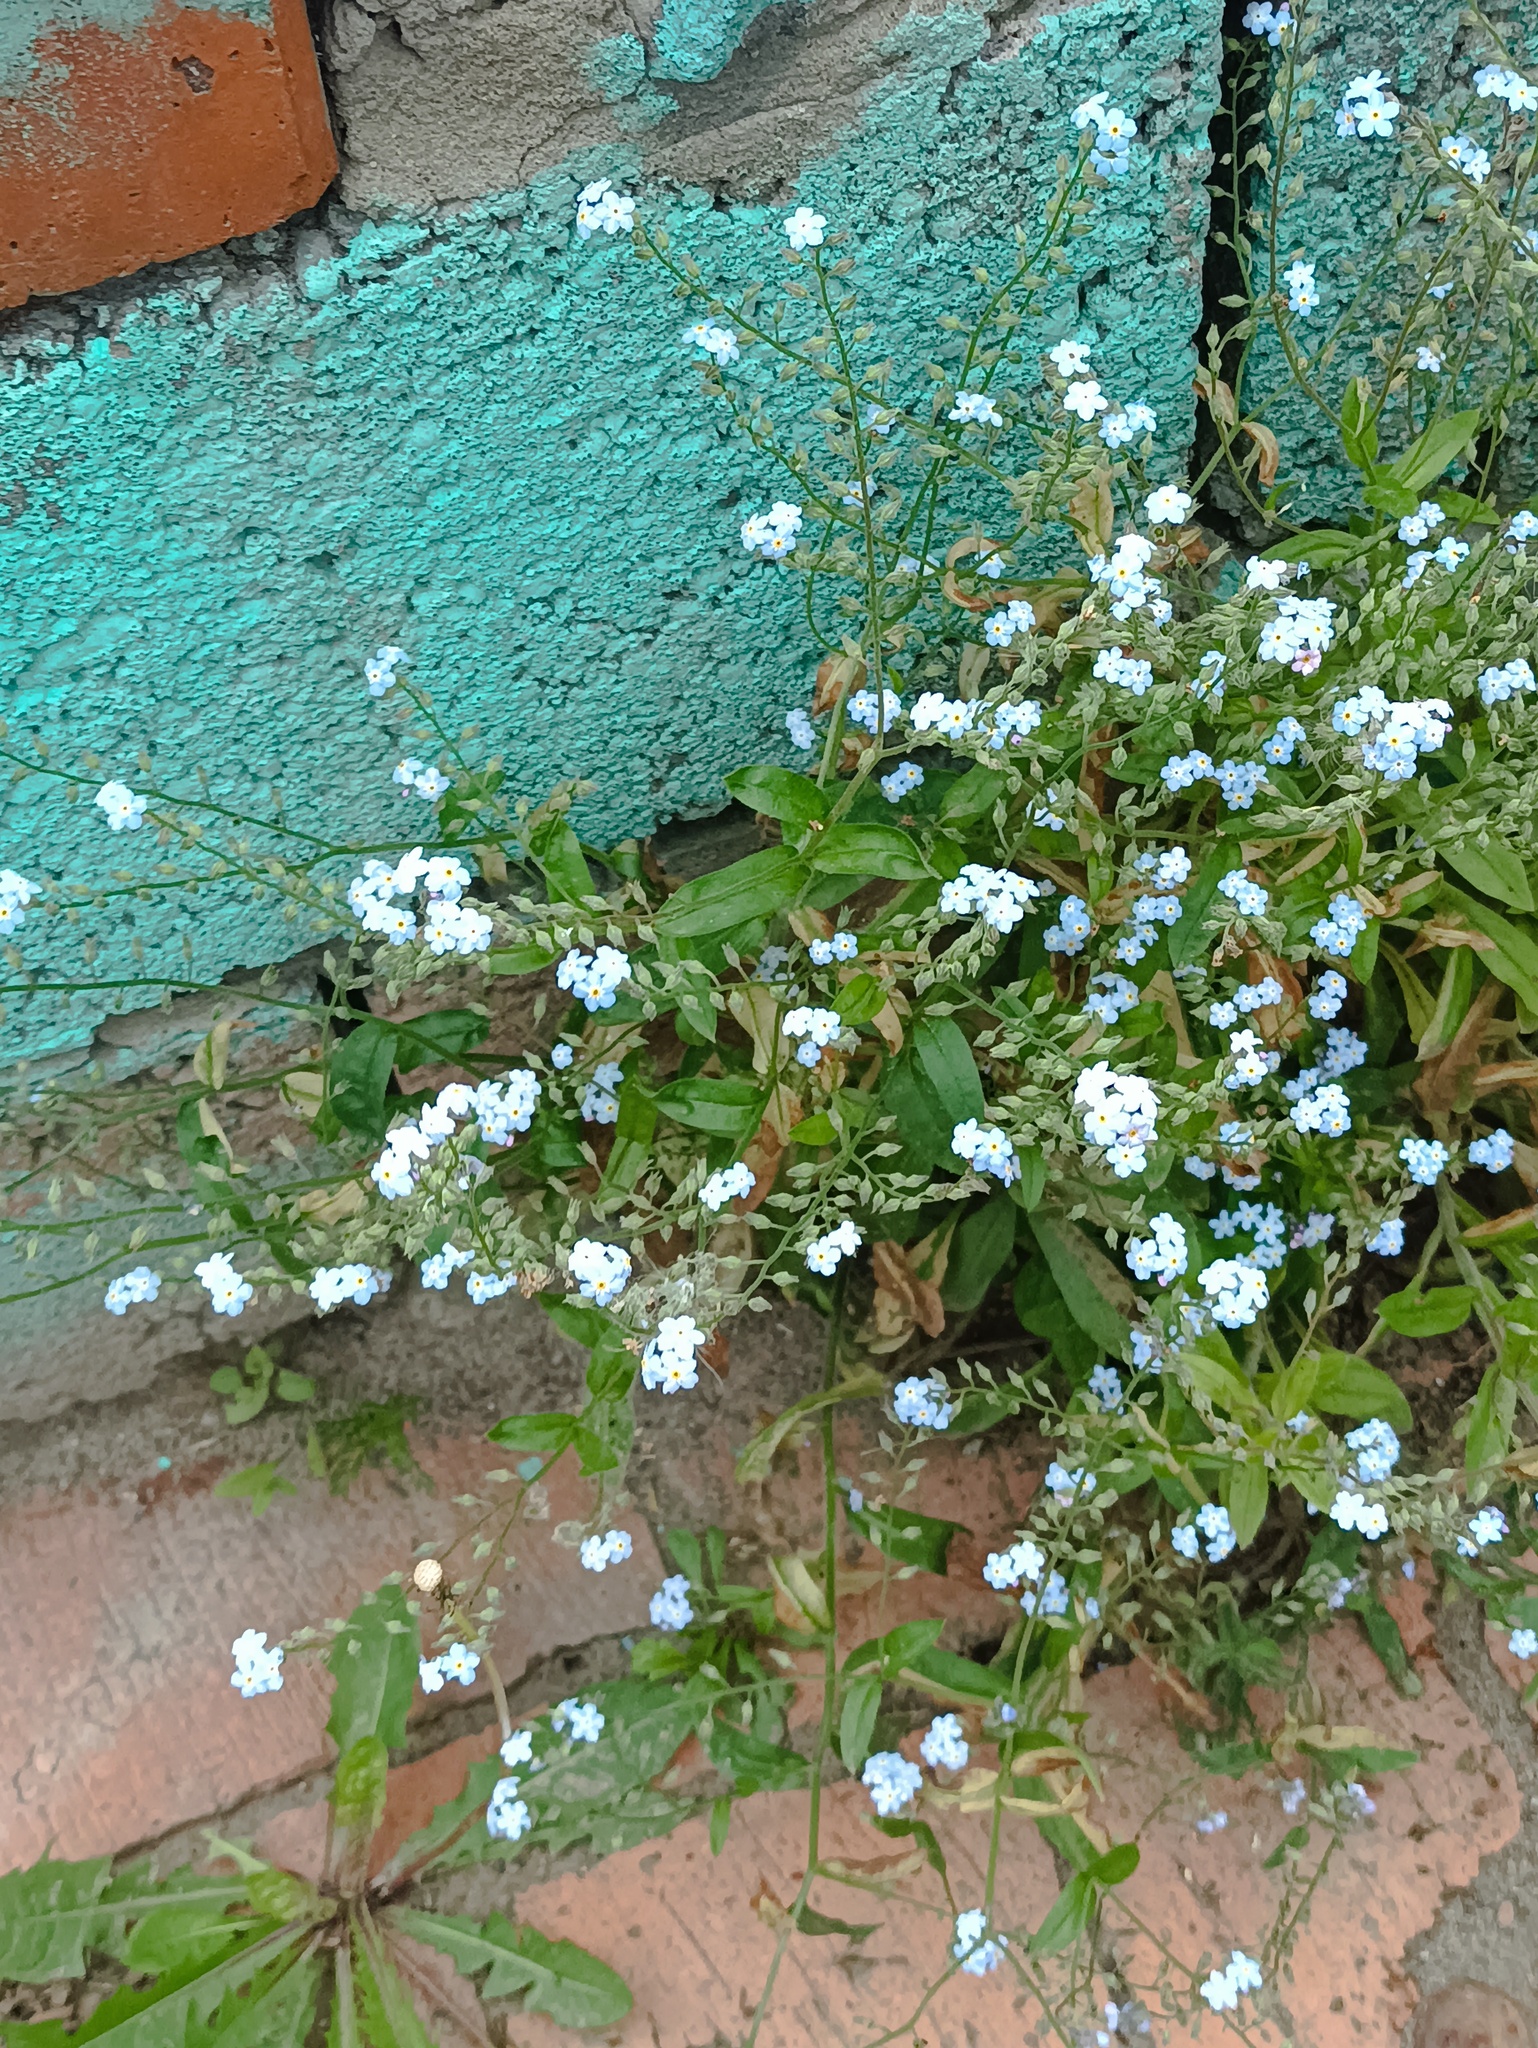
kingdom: Plantae
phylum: Tracheophyta
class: Magnoliopsida
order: Boraginales
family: Boraginaceae
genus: Myosotis
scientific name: Myosotis sylvatica
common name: Wood forget-me-not
